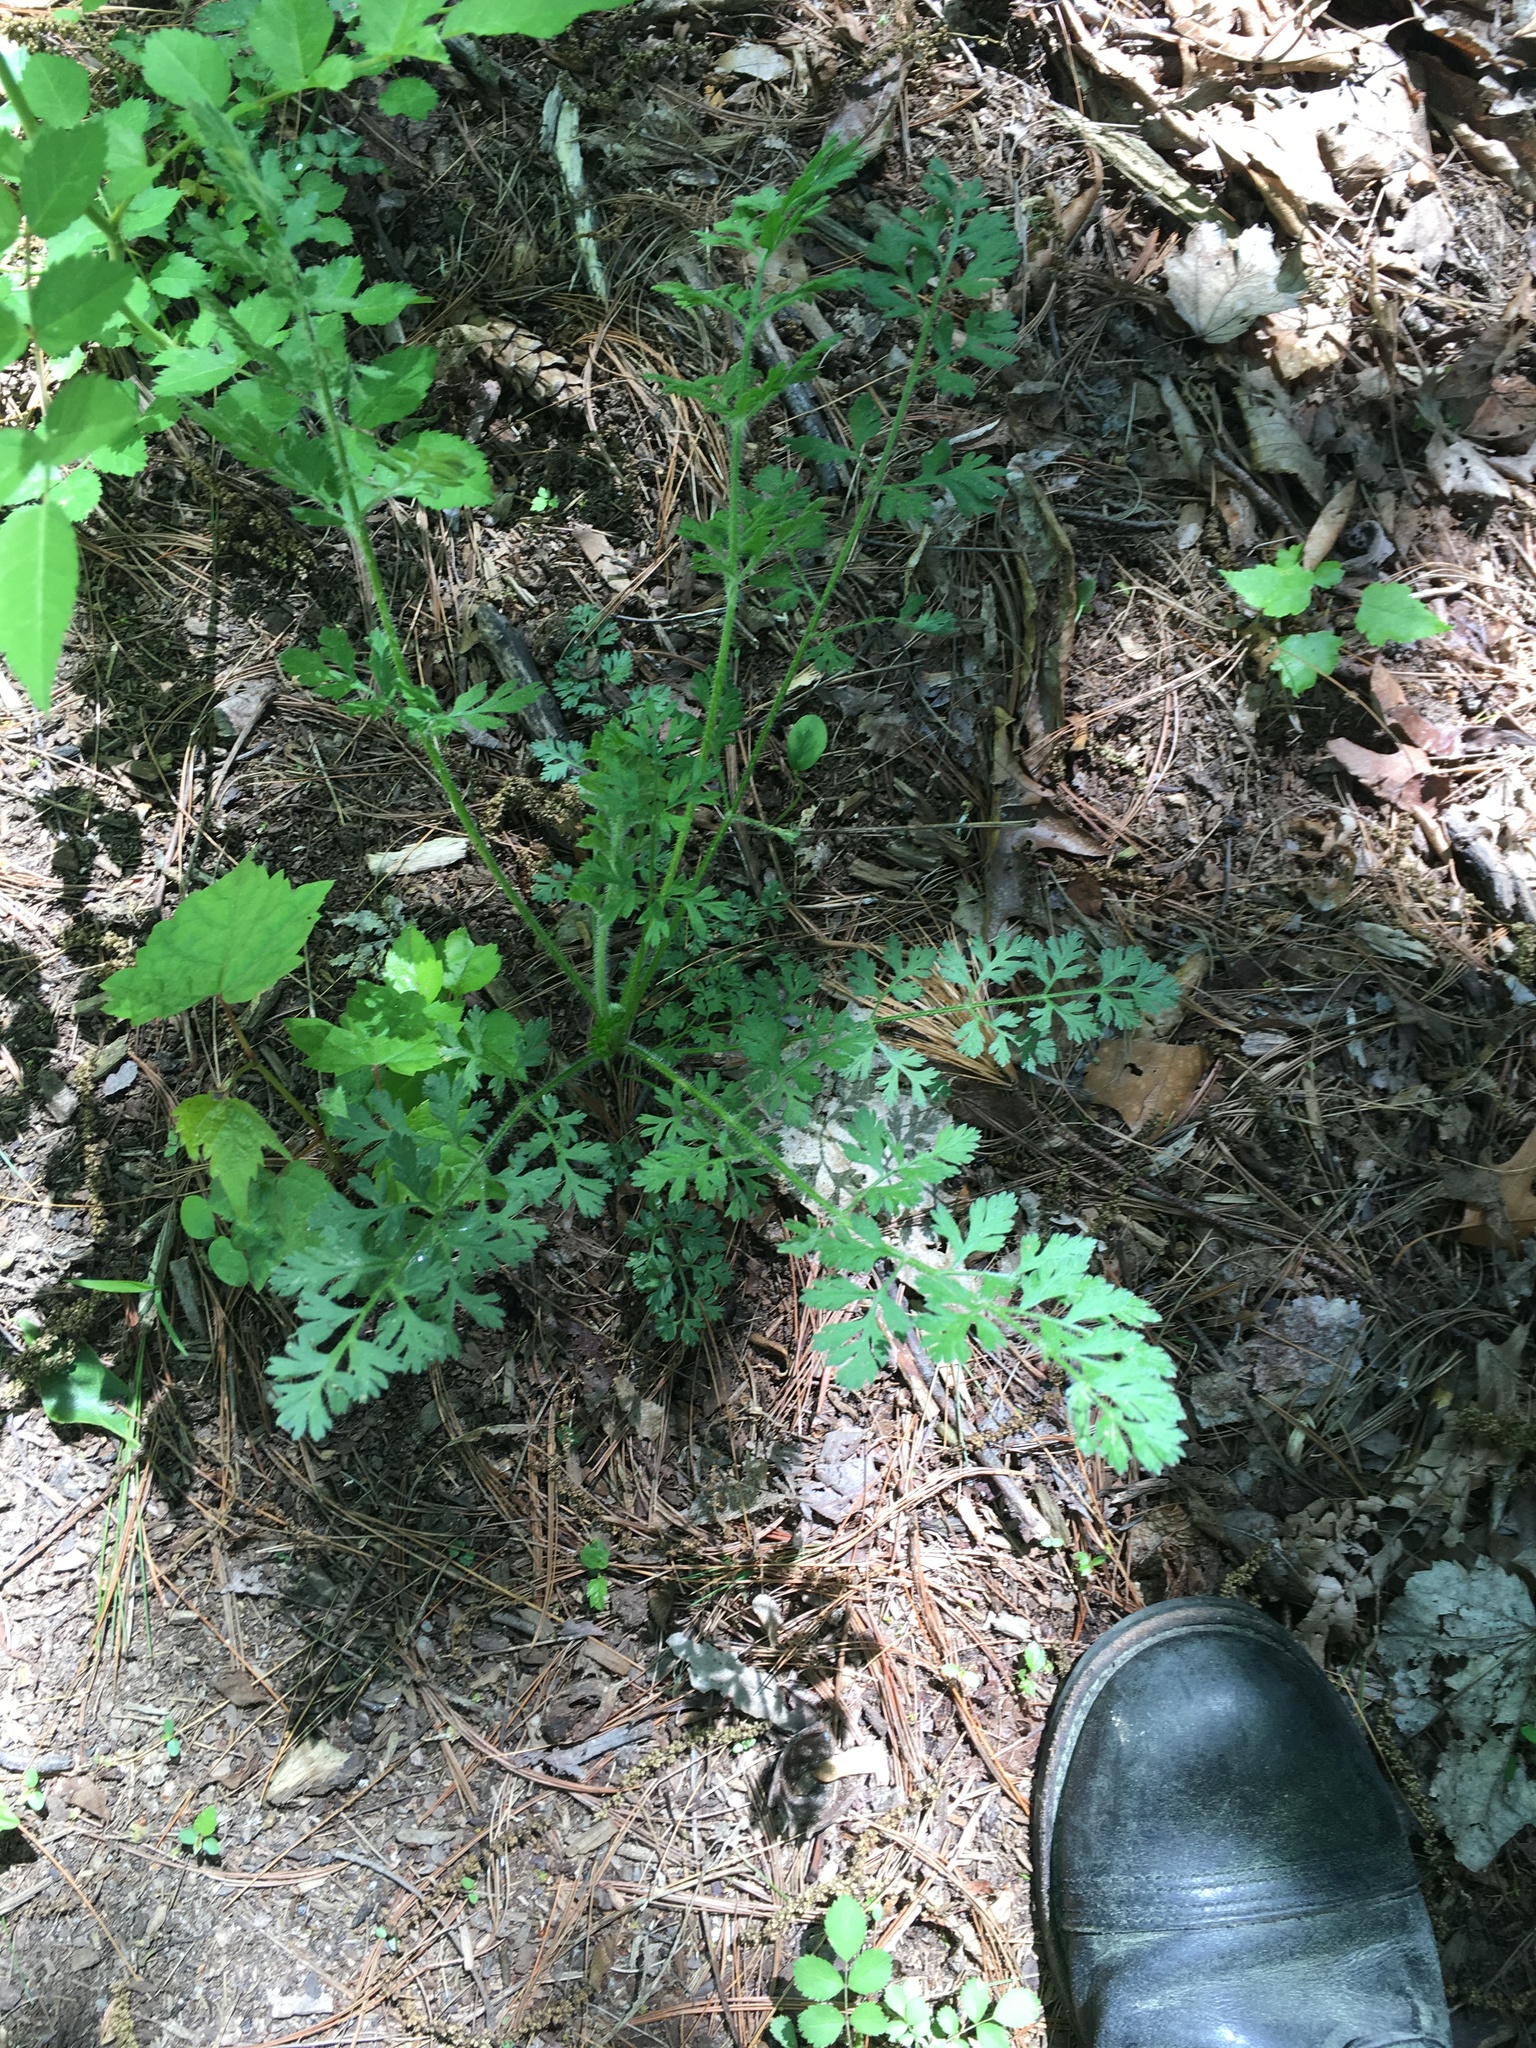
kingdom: Plantae
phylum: Tracheophyta
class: Magnoliopsida
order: Apiales
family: Apiaceae
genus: Daucus
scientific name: Daucus carota
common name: Wild carrot
